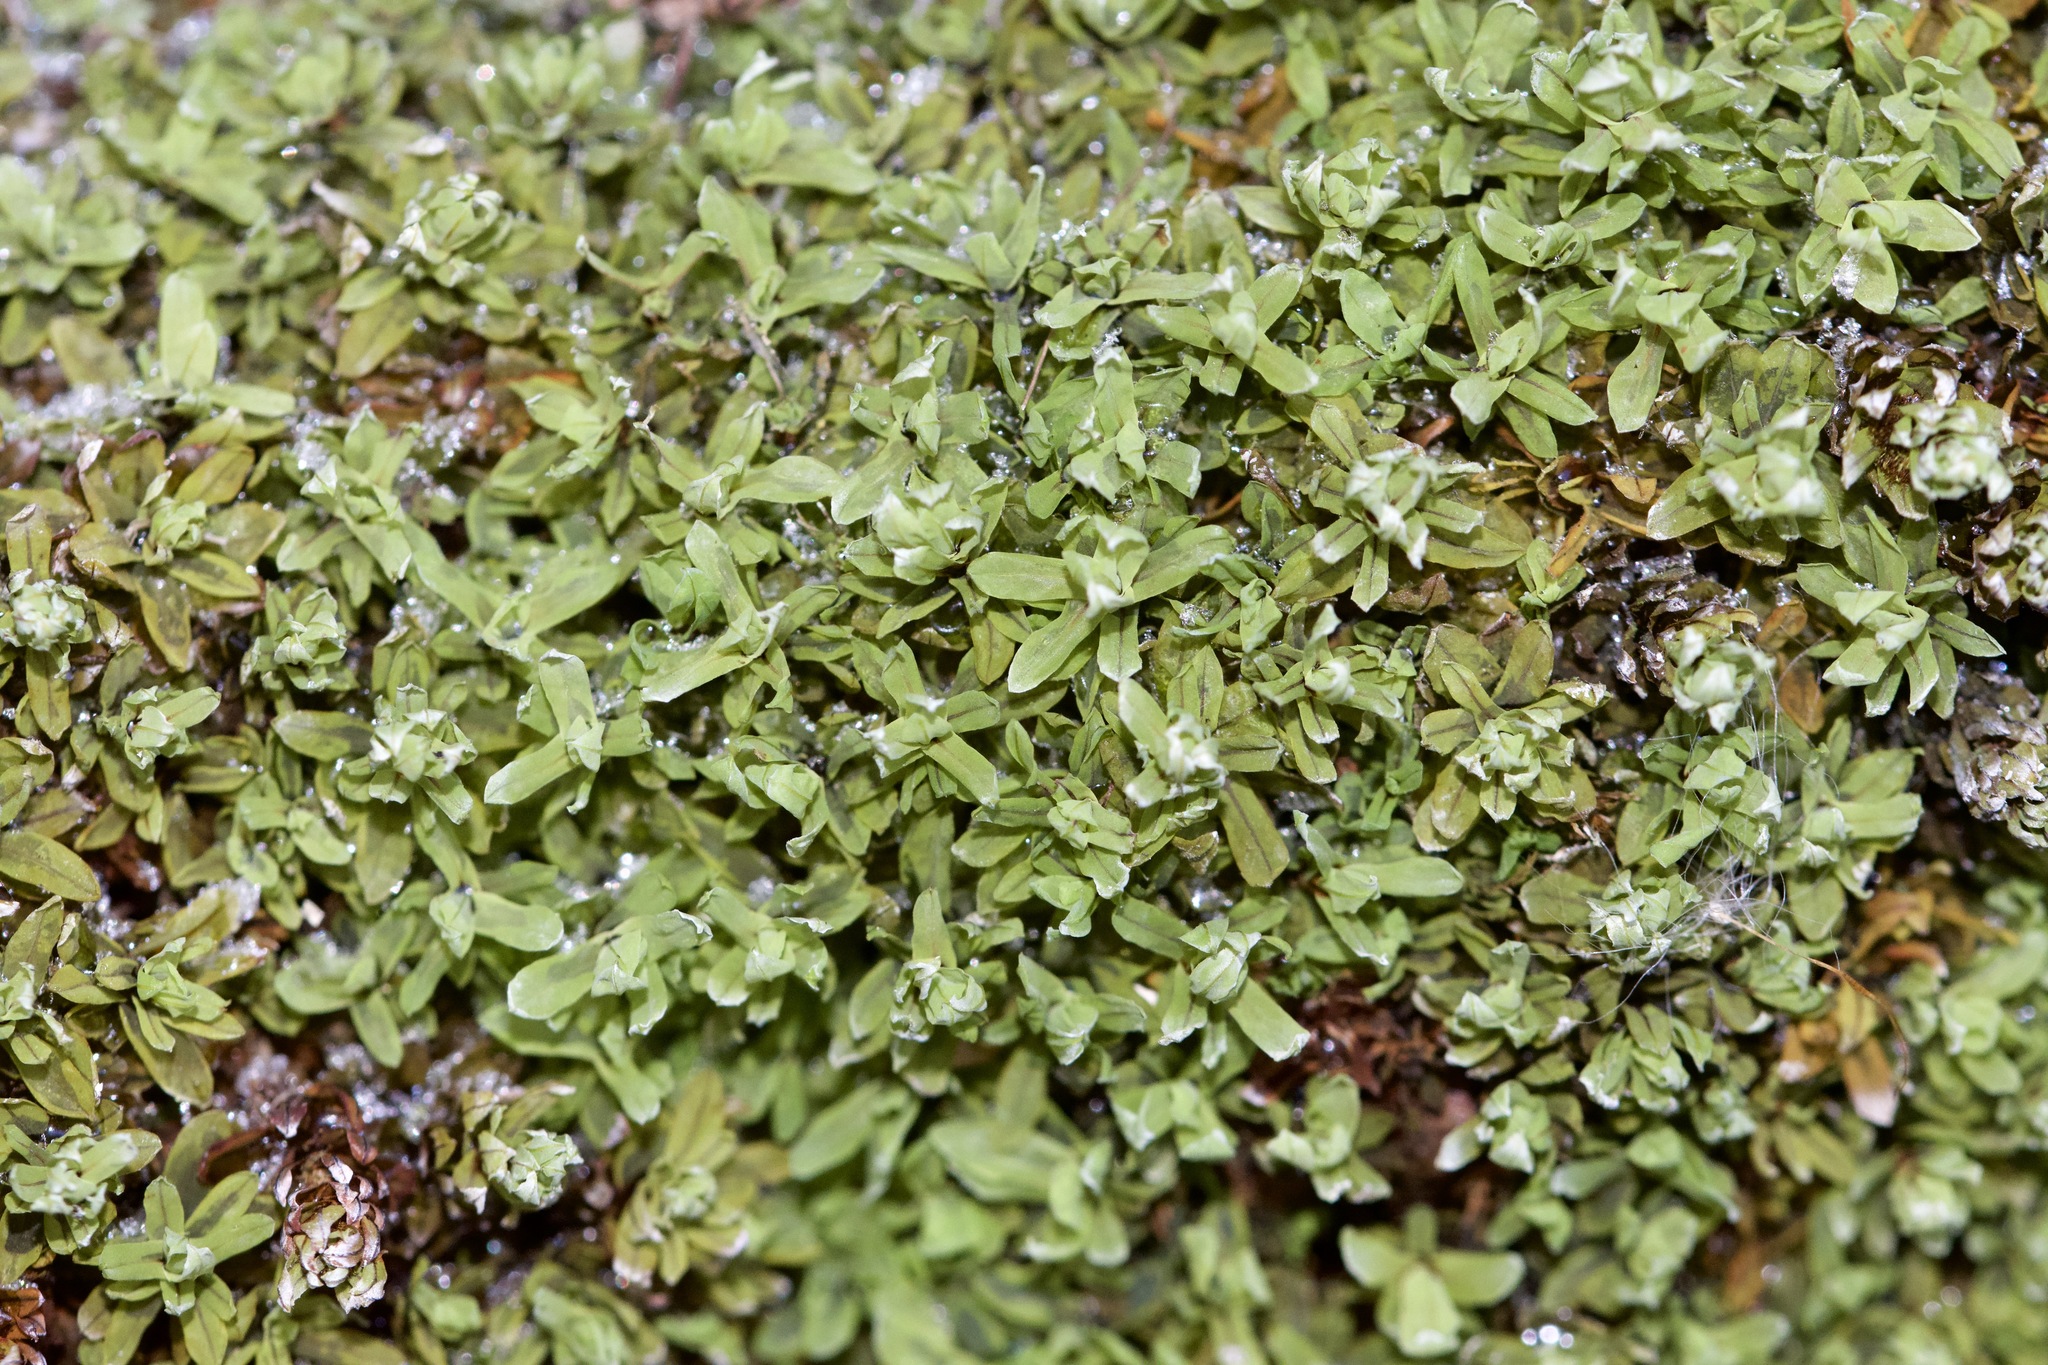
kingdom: Plantae
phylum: Bryophyta
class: Bryopsida
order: Encalyptales
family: Encalyptaceae
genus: Encalypta
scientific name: Encalypta procera
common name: Spiral extinguisher moss
